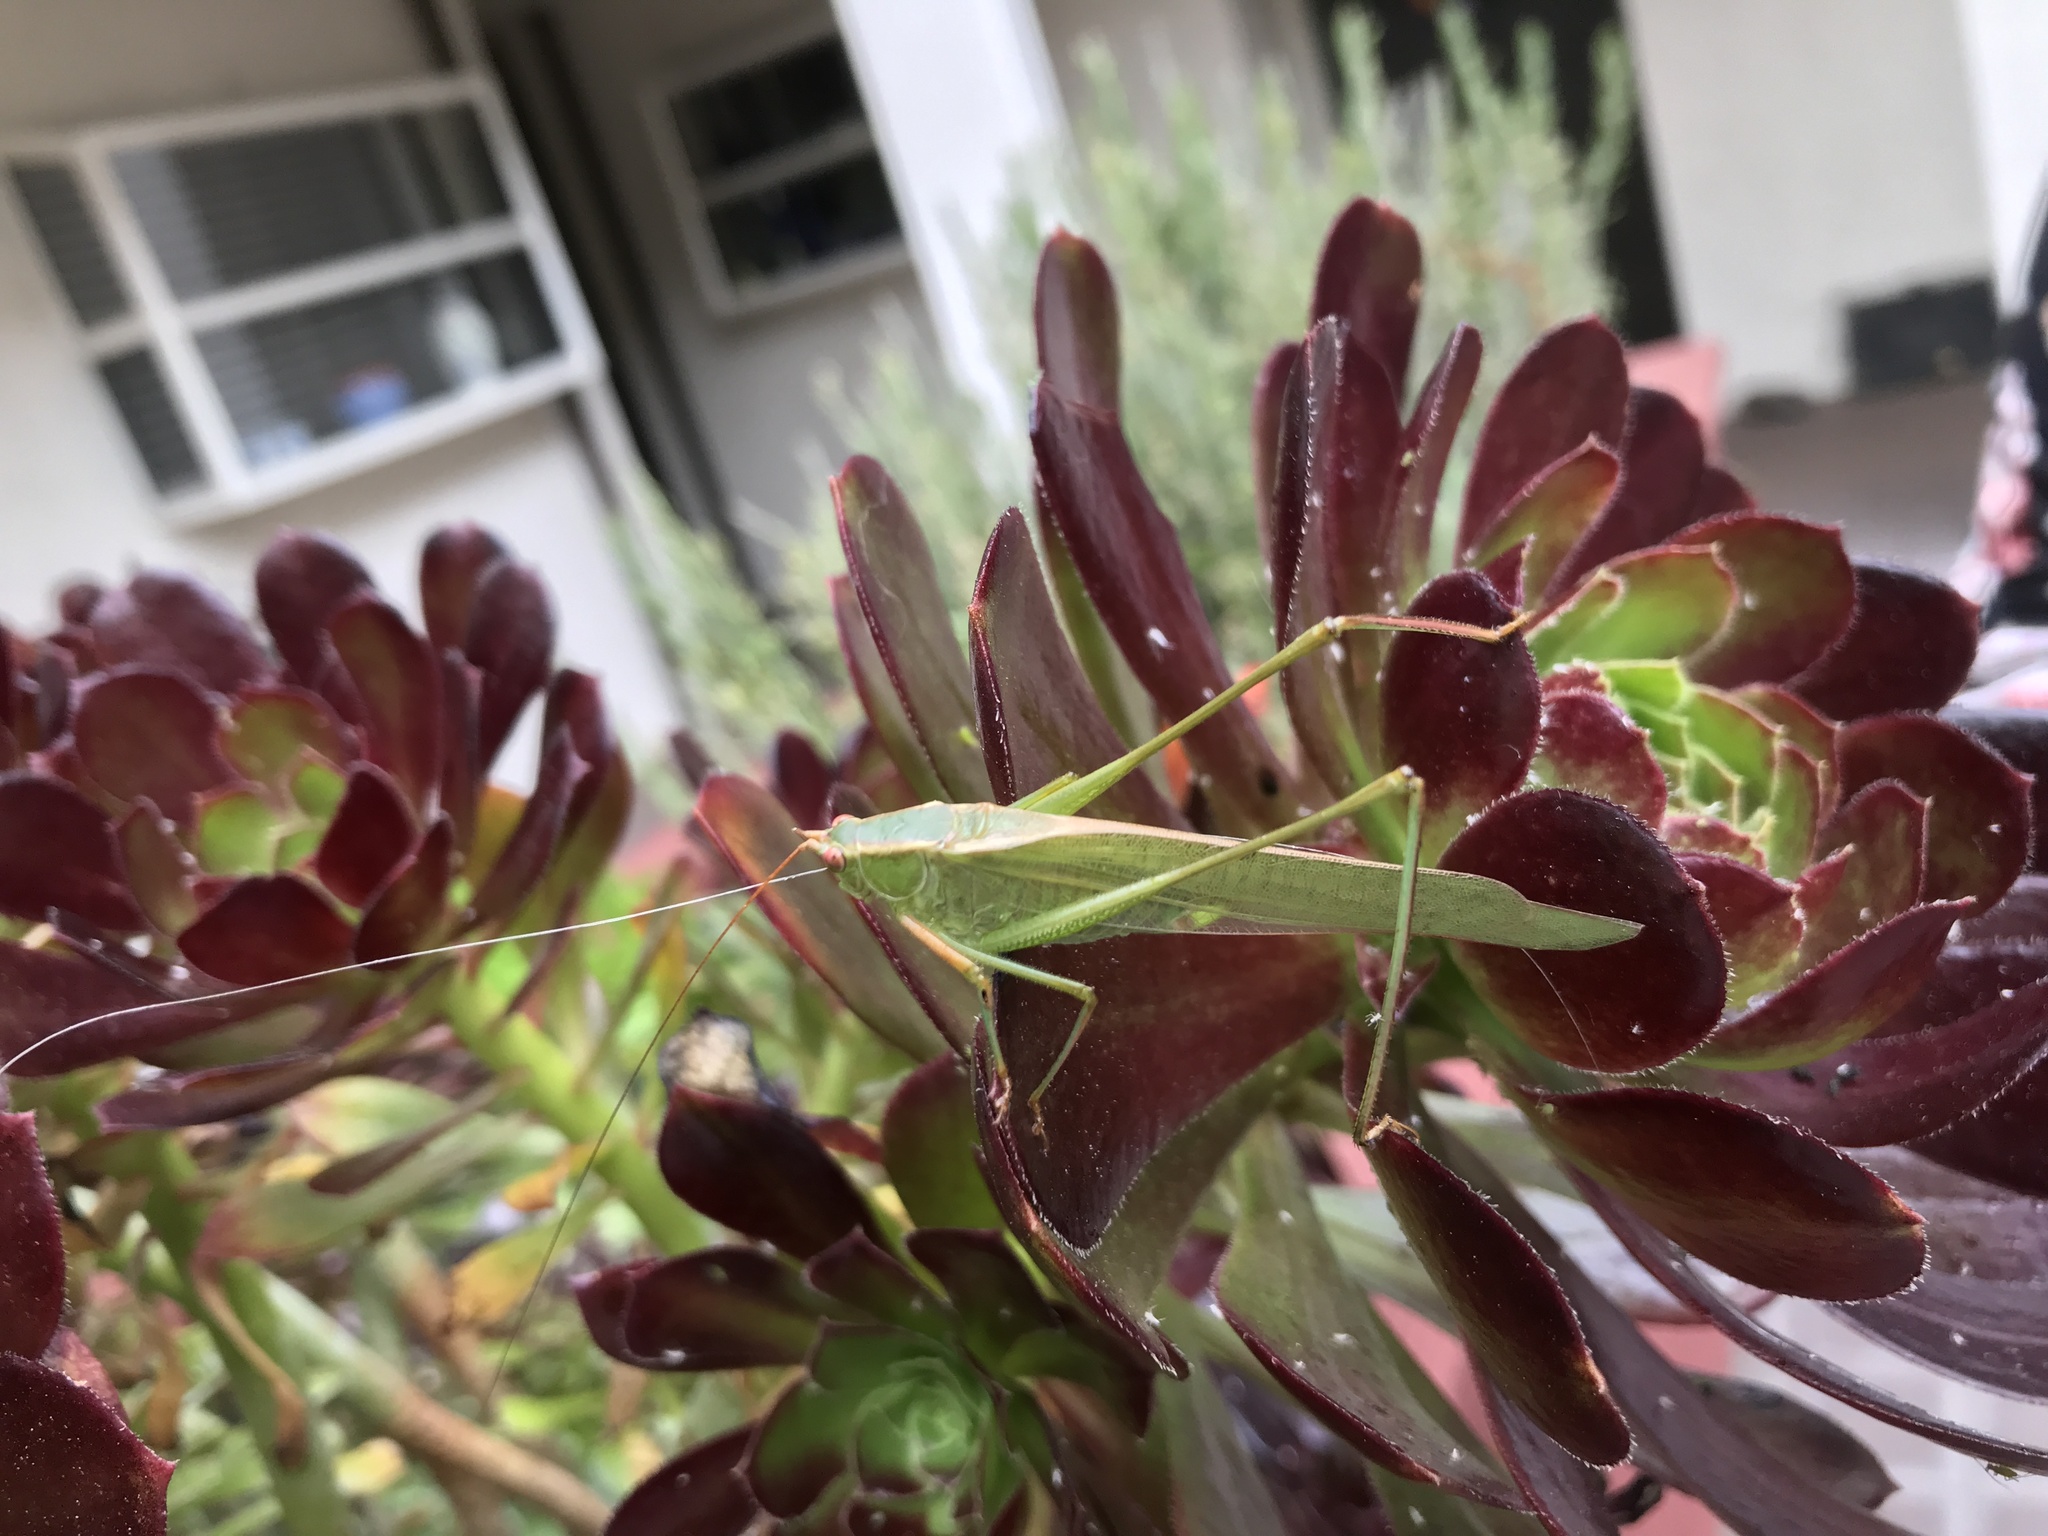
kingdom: Animalia
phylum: Arthropoda
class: Insecta
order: Orthoptera
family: Tettigoniidae
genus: Scudderia
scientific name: Scudderia
